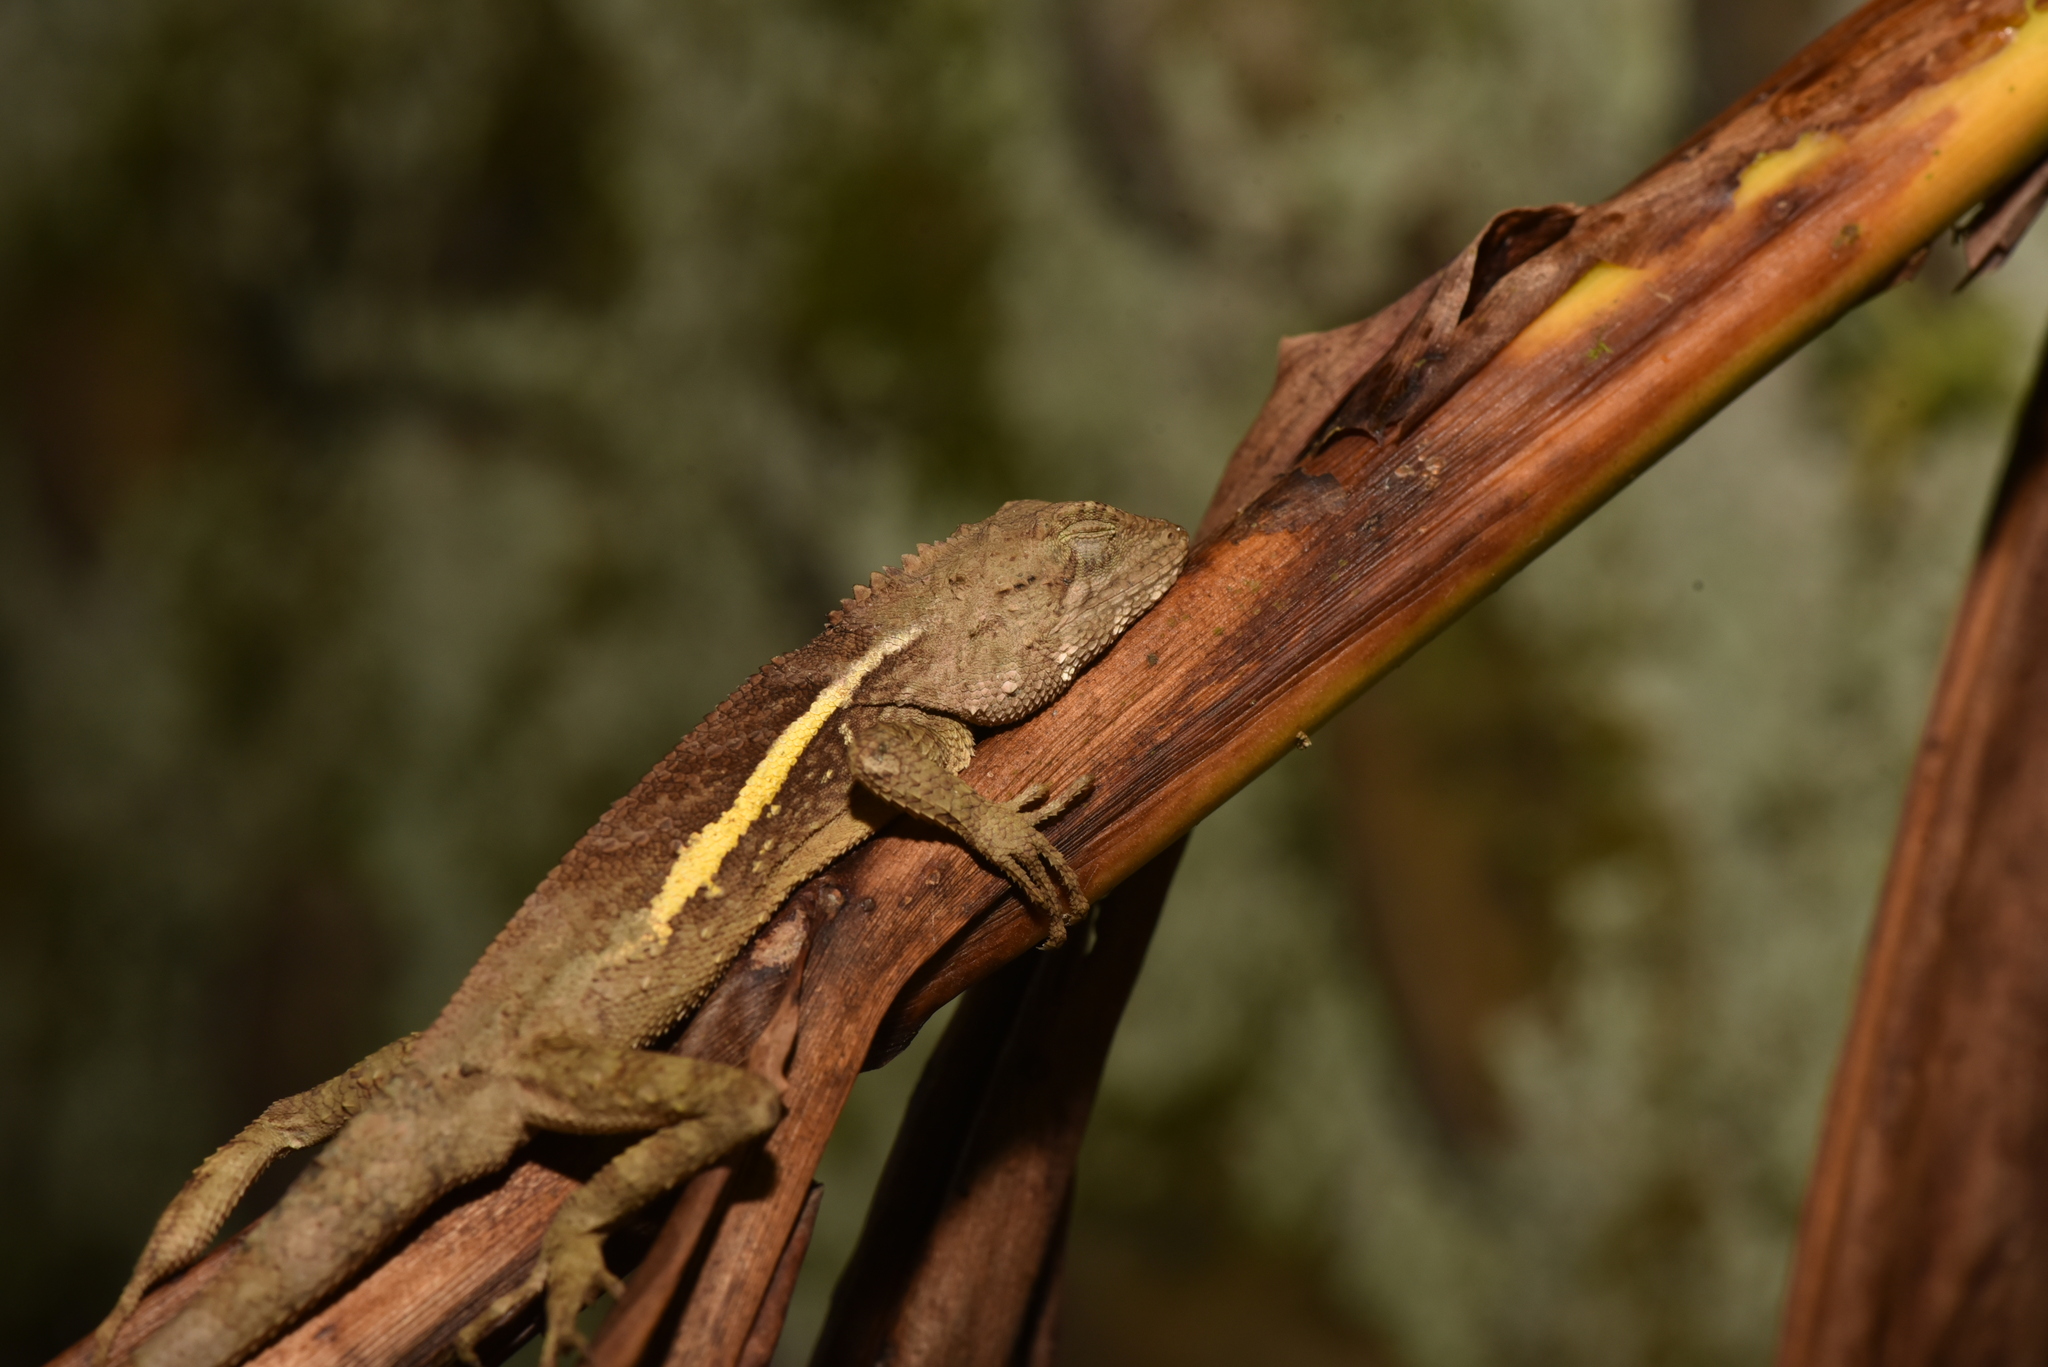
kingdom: Animalia
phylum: Chordata
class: Squamata
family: Agamidae
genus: Diploderma
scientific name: Diploderma swinhonis
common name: Taiwan japalure
